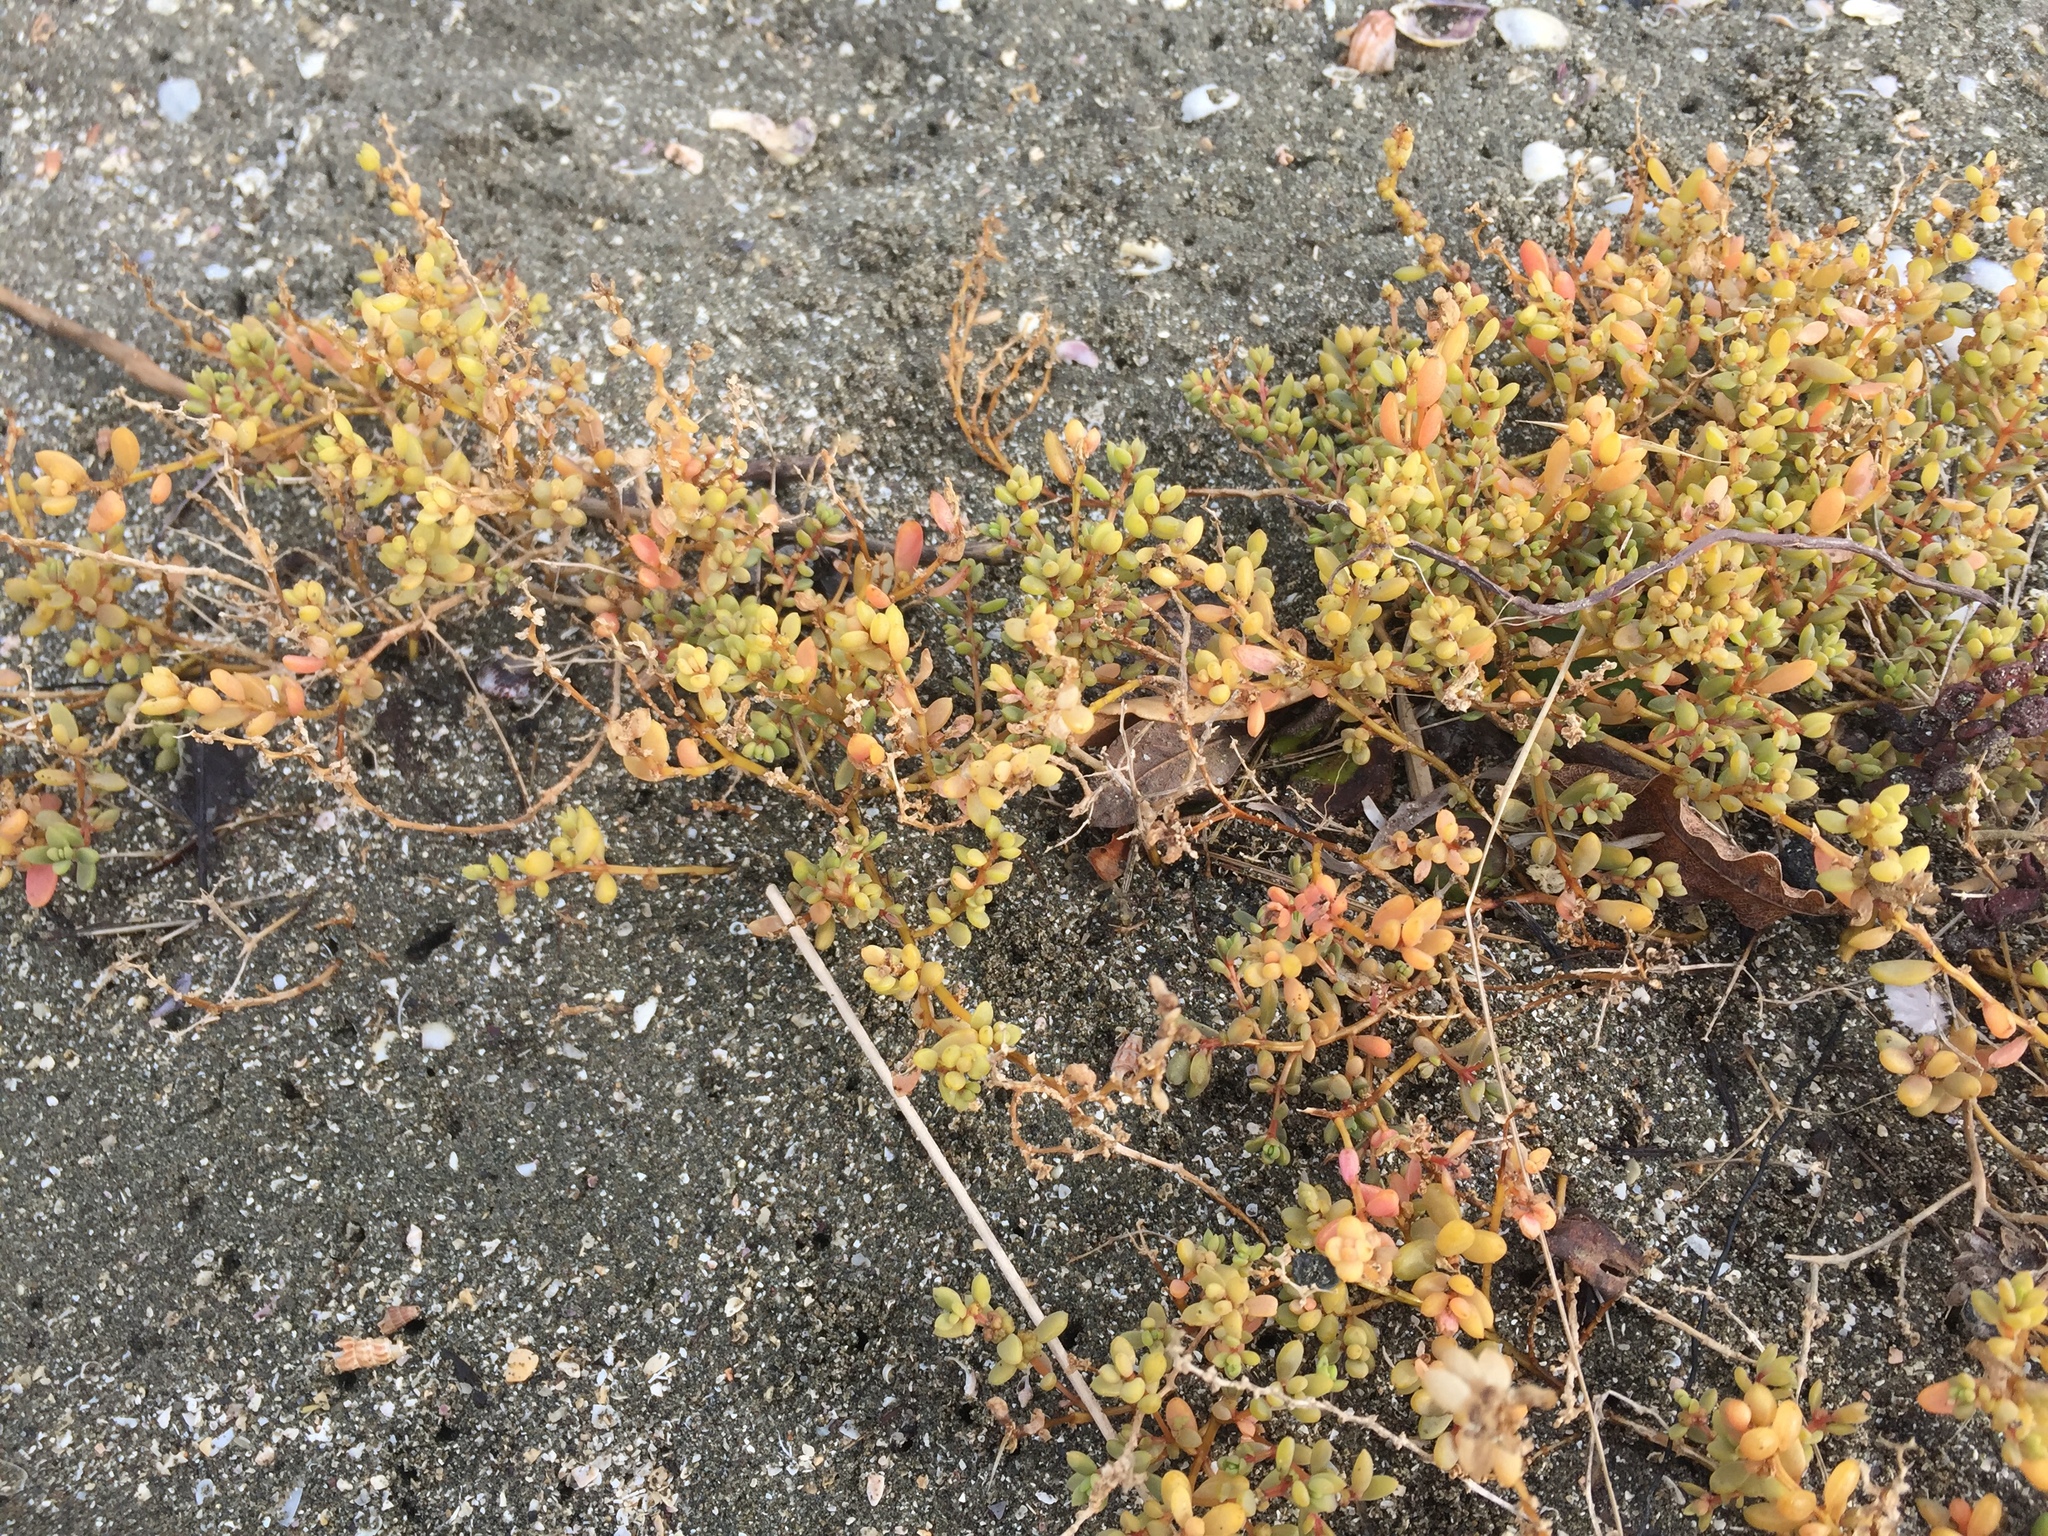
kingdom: Plantae
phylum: Tracheophyta
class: Magnoliopsida
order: Caryophyllales
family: Amaranthaceae
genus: Suaeda
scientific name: Suaeda novae-zelandiae
